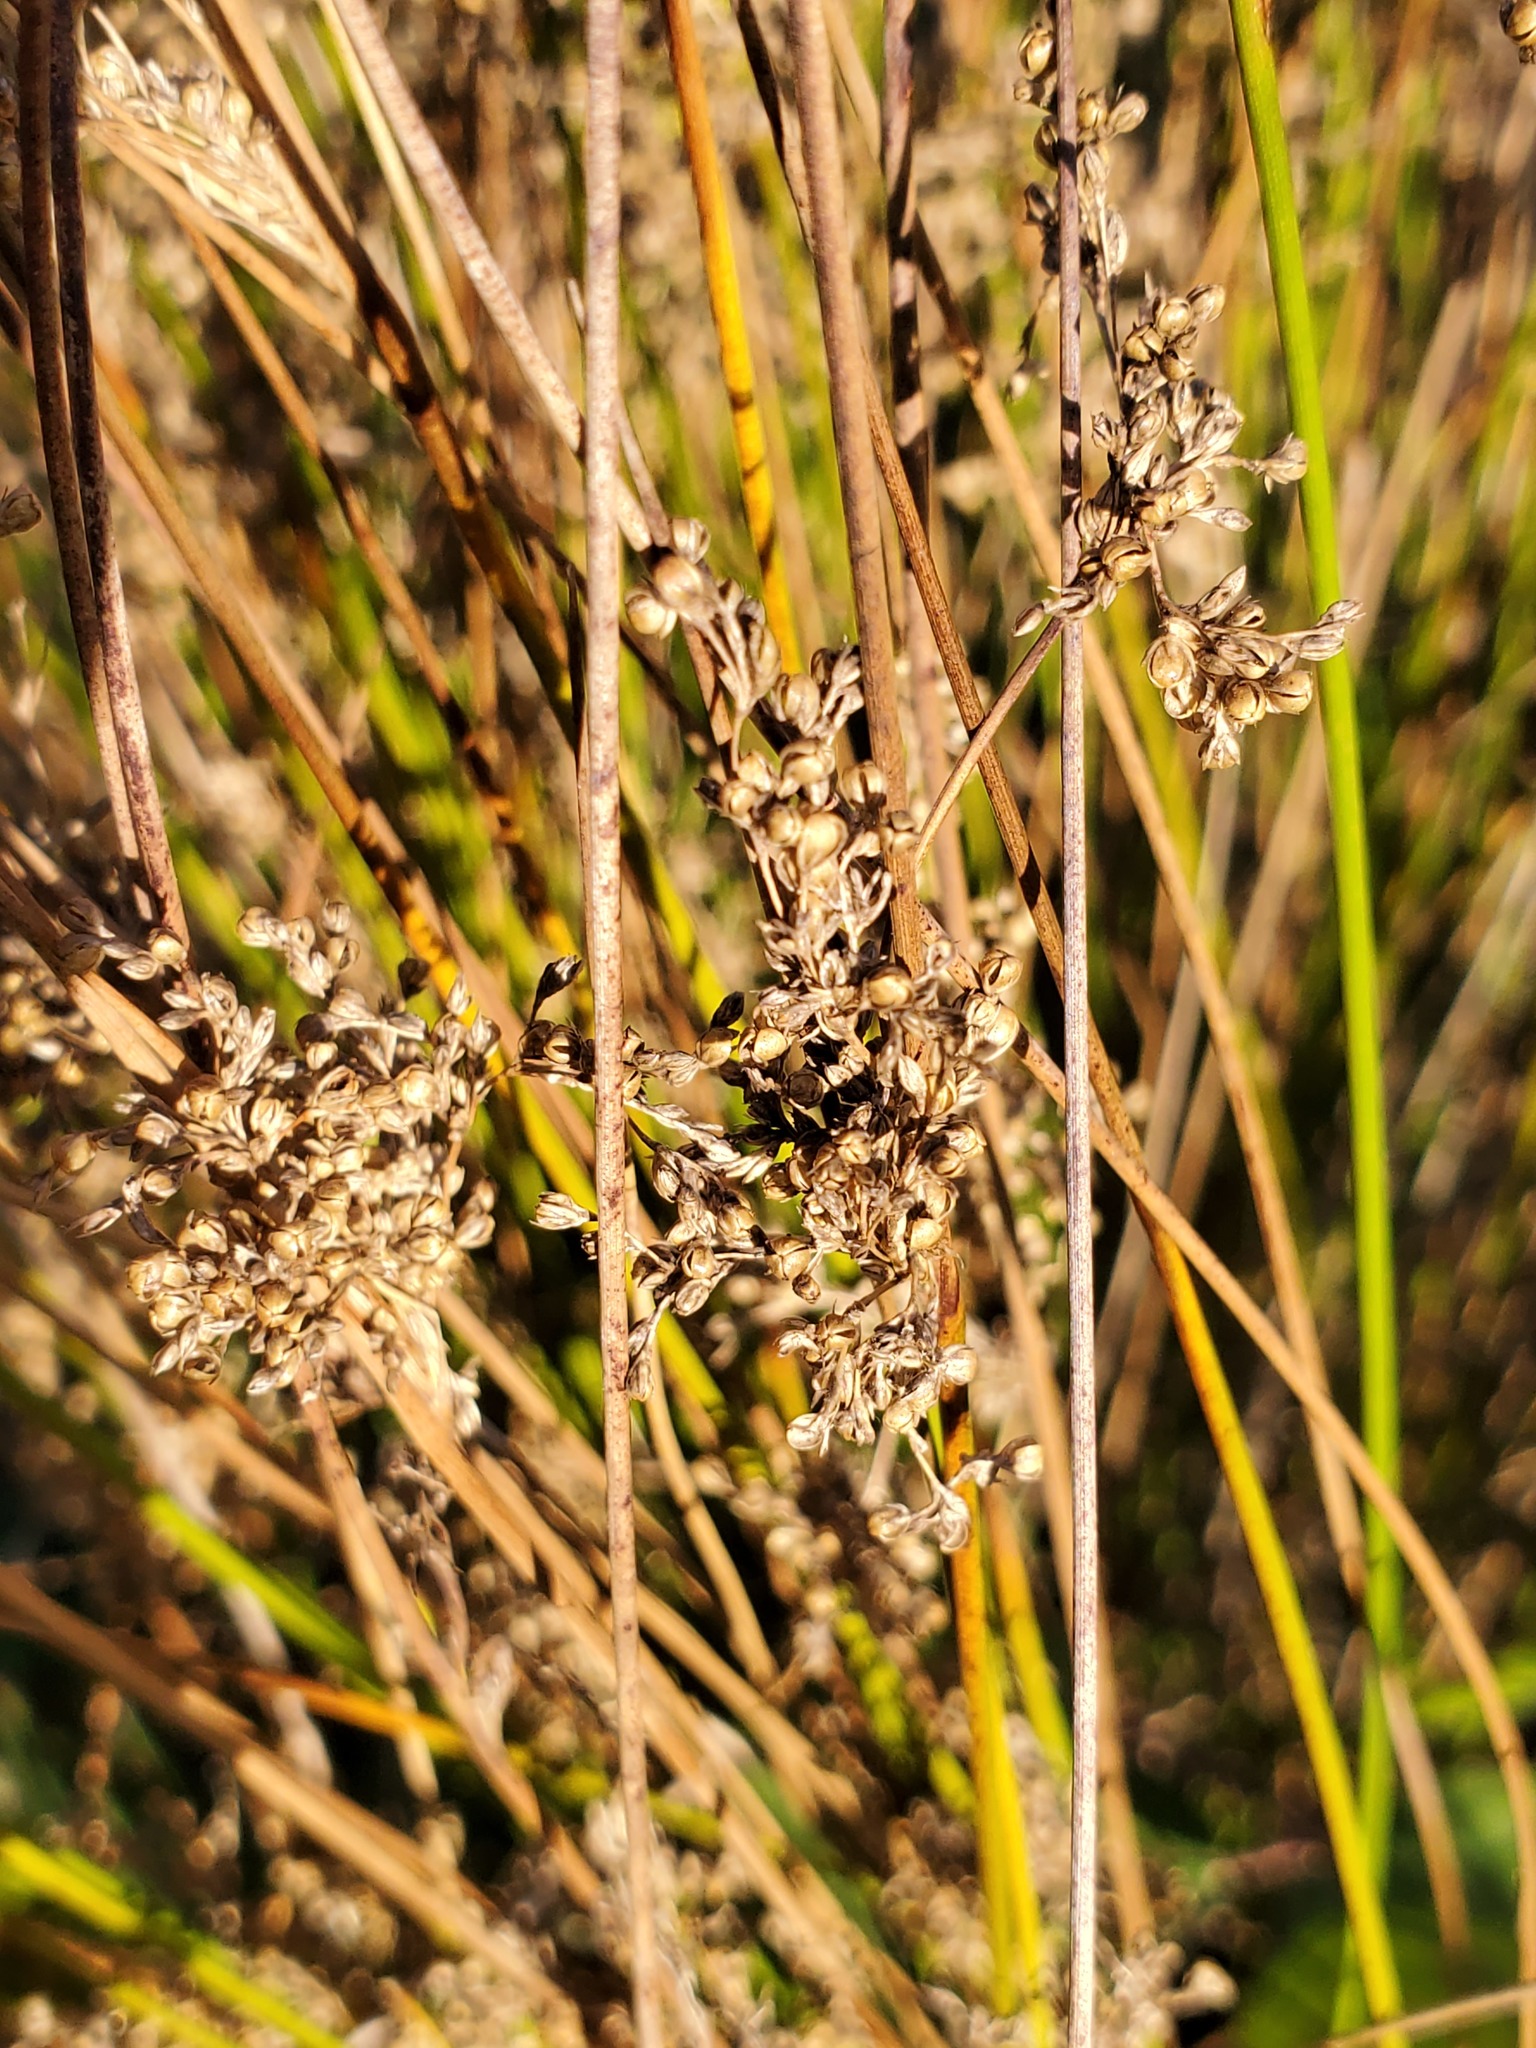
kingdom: Plantae
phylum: Tracheophyta
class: Liliopsida
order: Poales
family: Juncaceae
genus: Juncus
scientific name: Juncus effusus
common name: Soft rush
